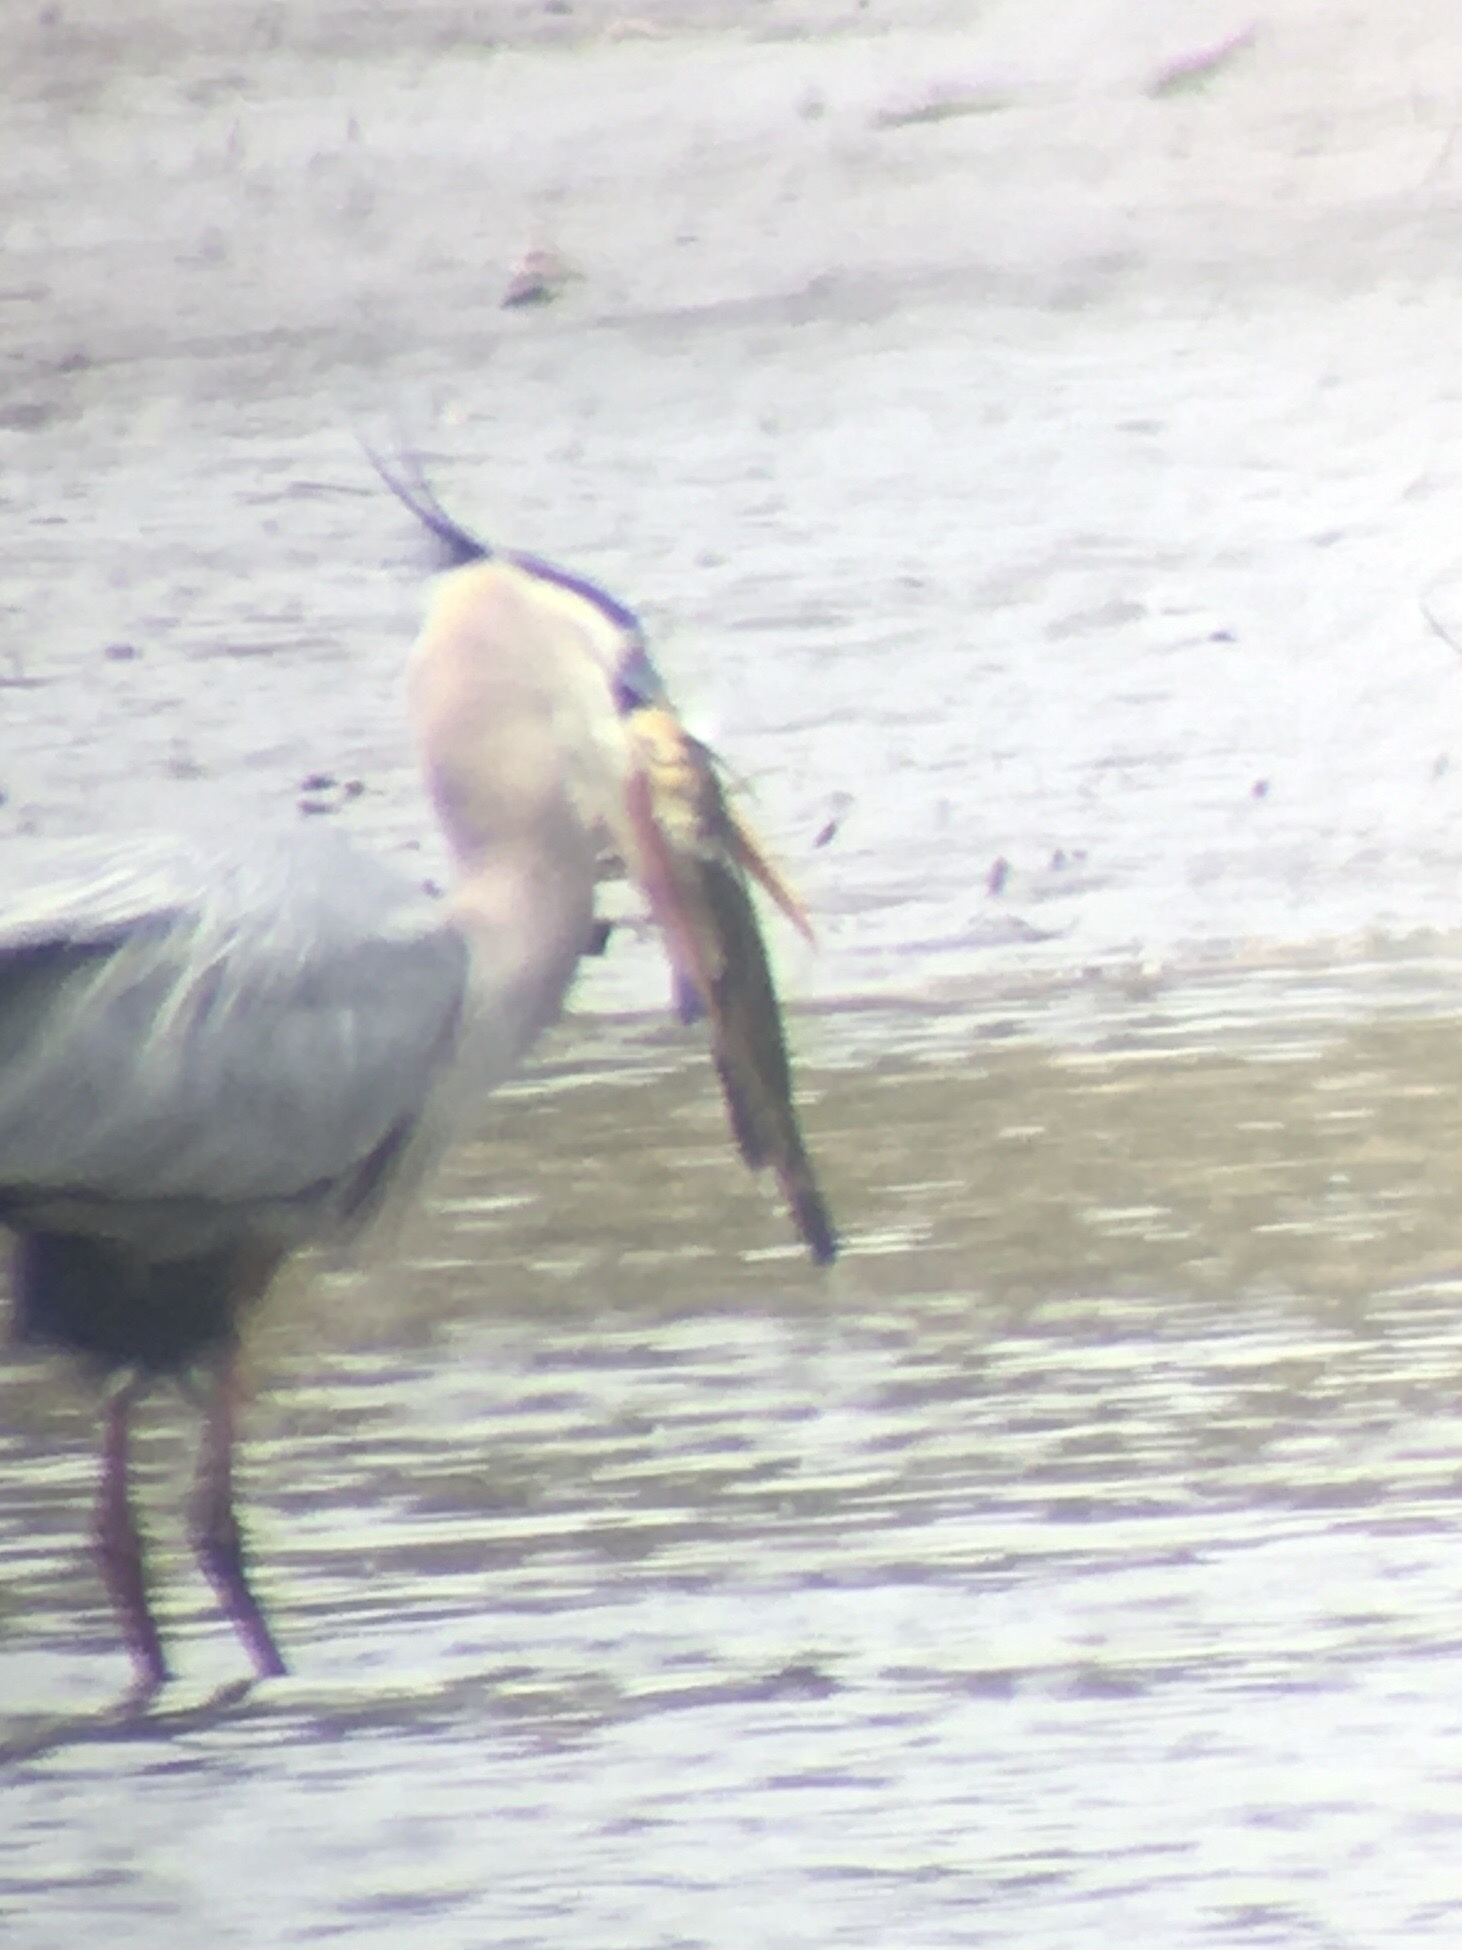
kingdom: Animalia
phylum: Chordata
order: Siluriformes
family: Ictaluridae
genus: Ameiurus
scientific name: Ameiurus
